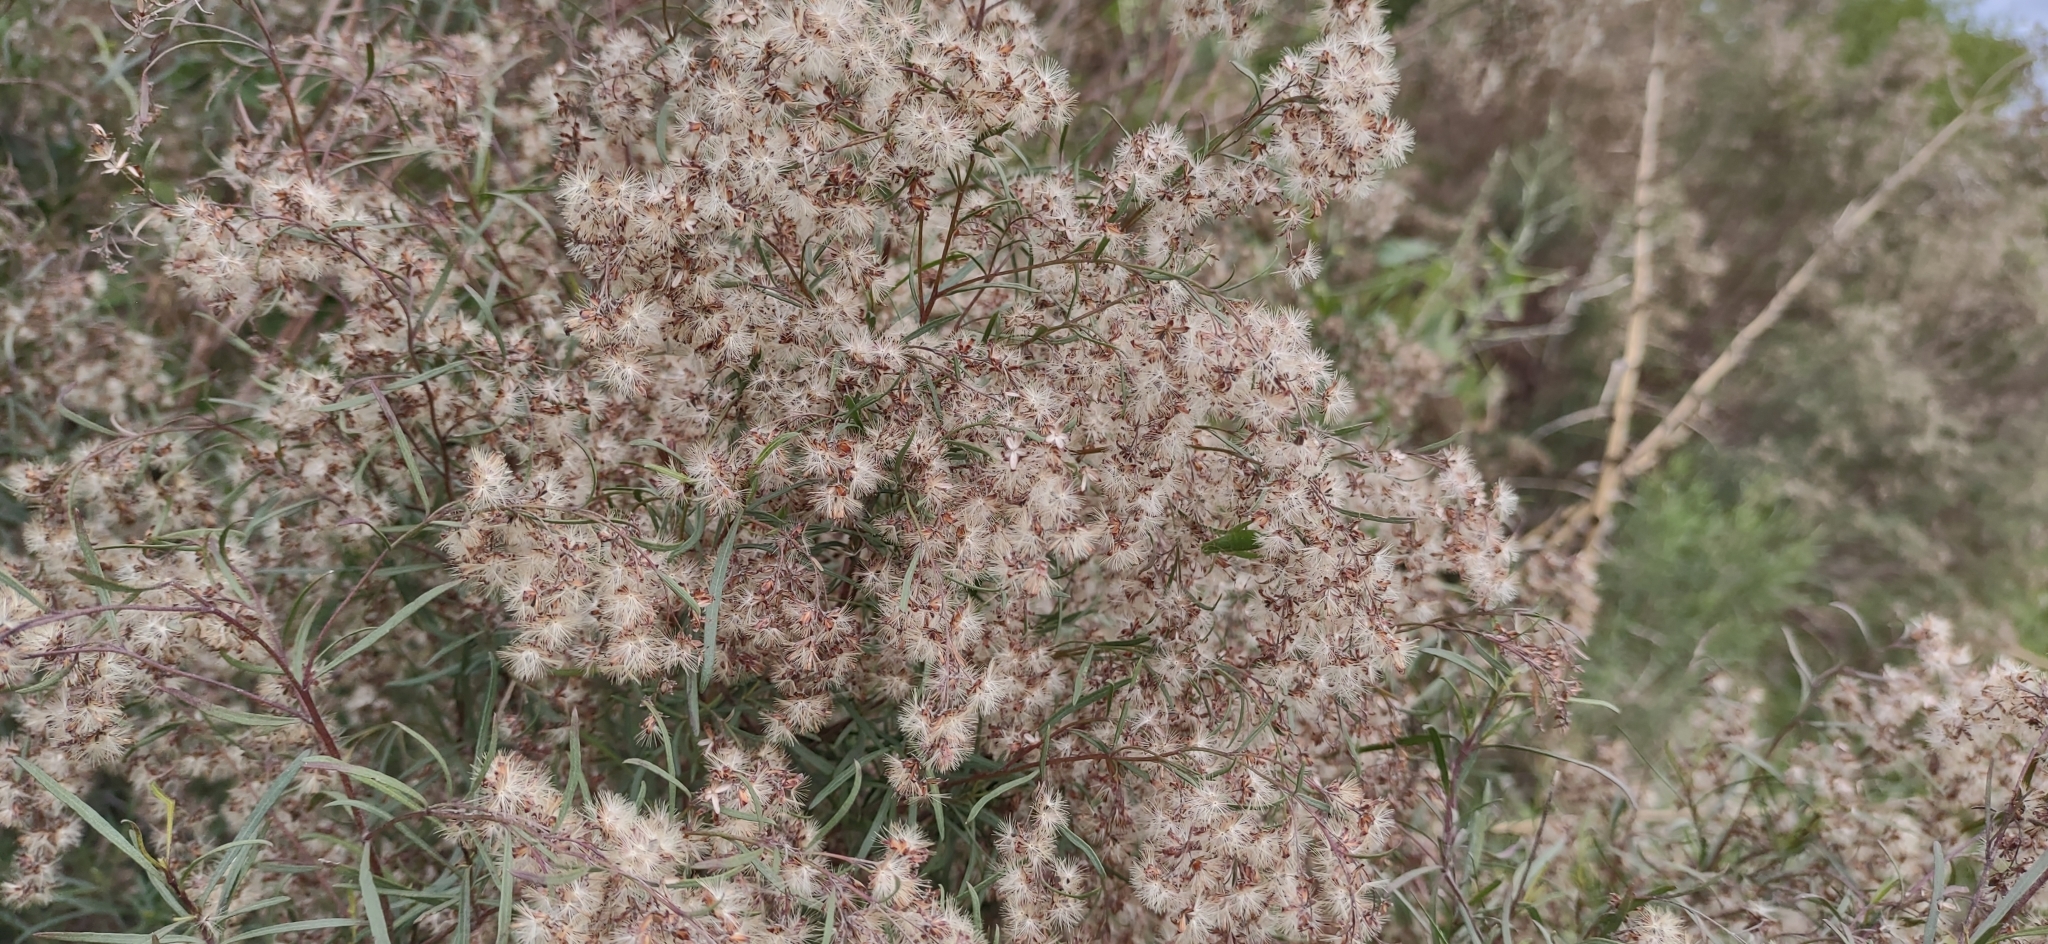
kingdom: Plantae
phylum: Tracheophyta
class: Magnoliopsida
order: Asterales
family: Asteraceae
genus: Acanthostyles
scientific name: Acanthostyles buniifolius
